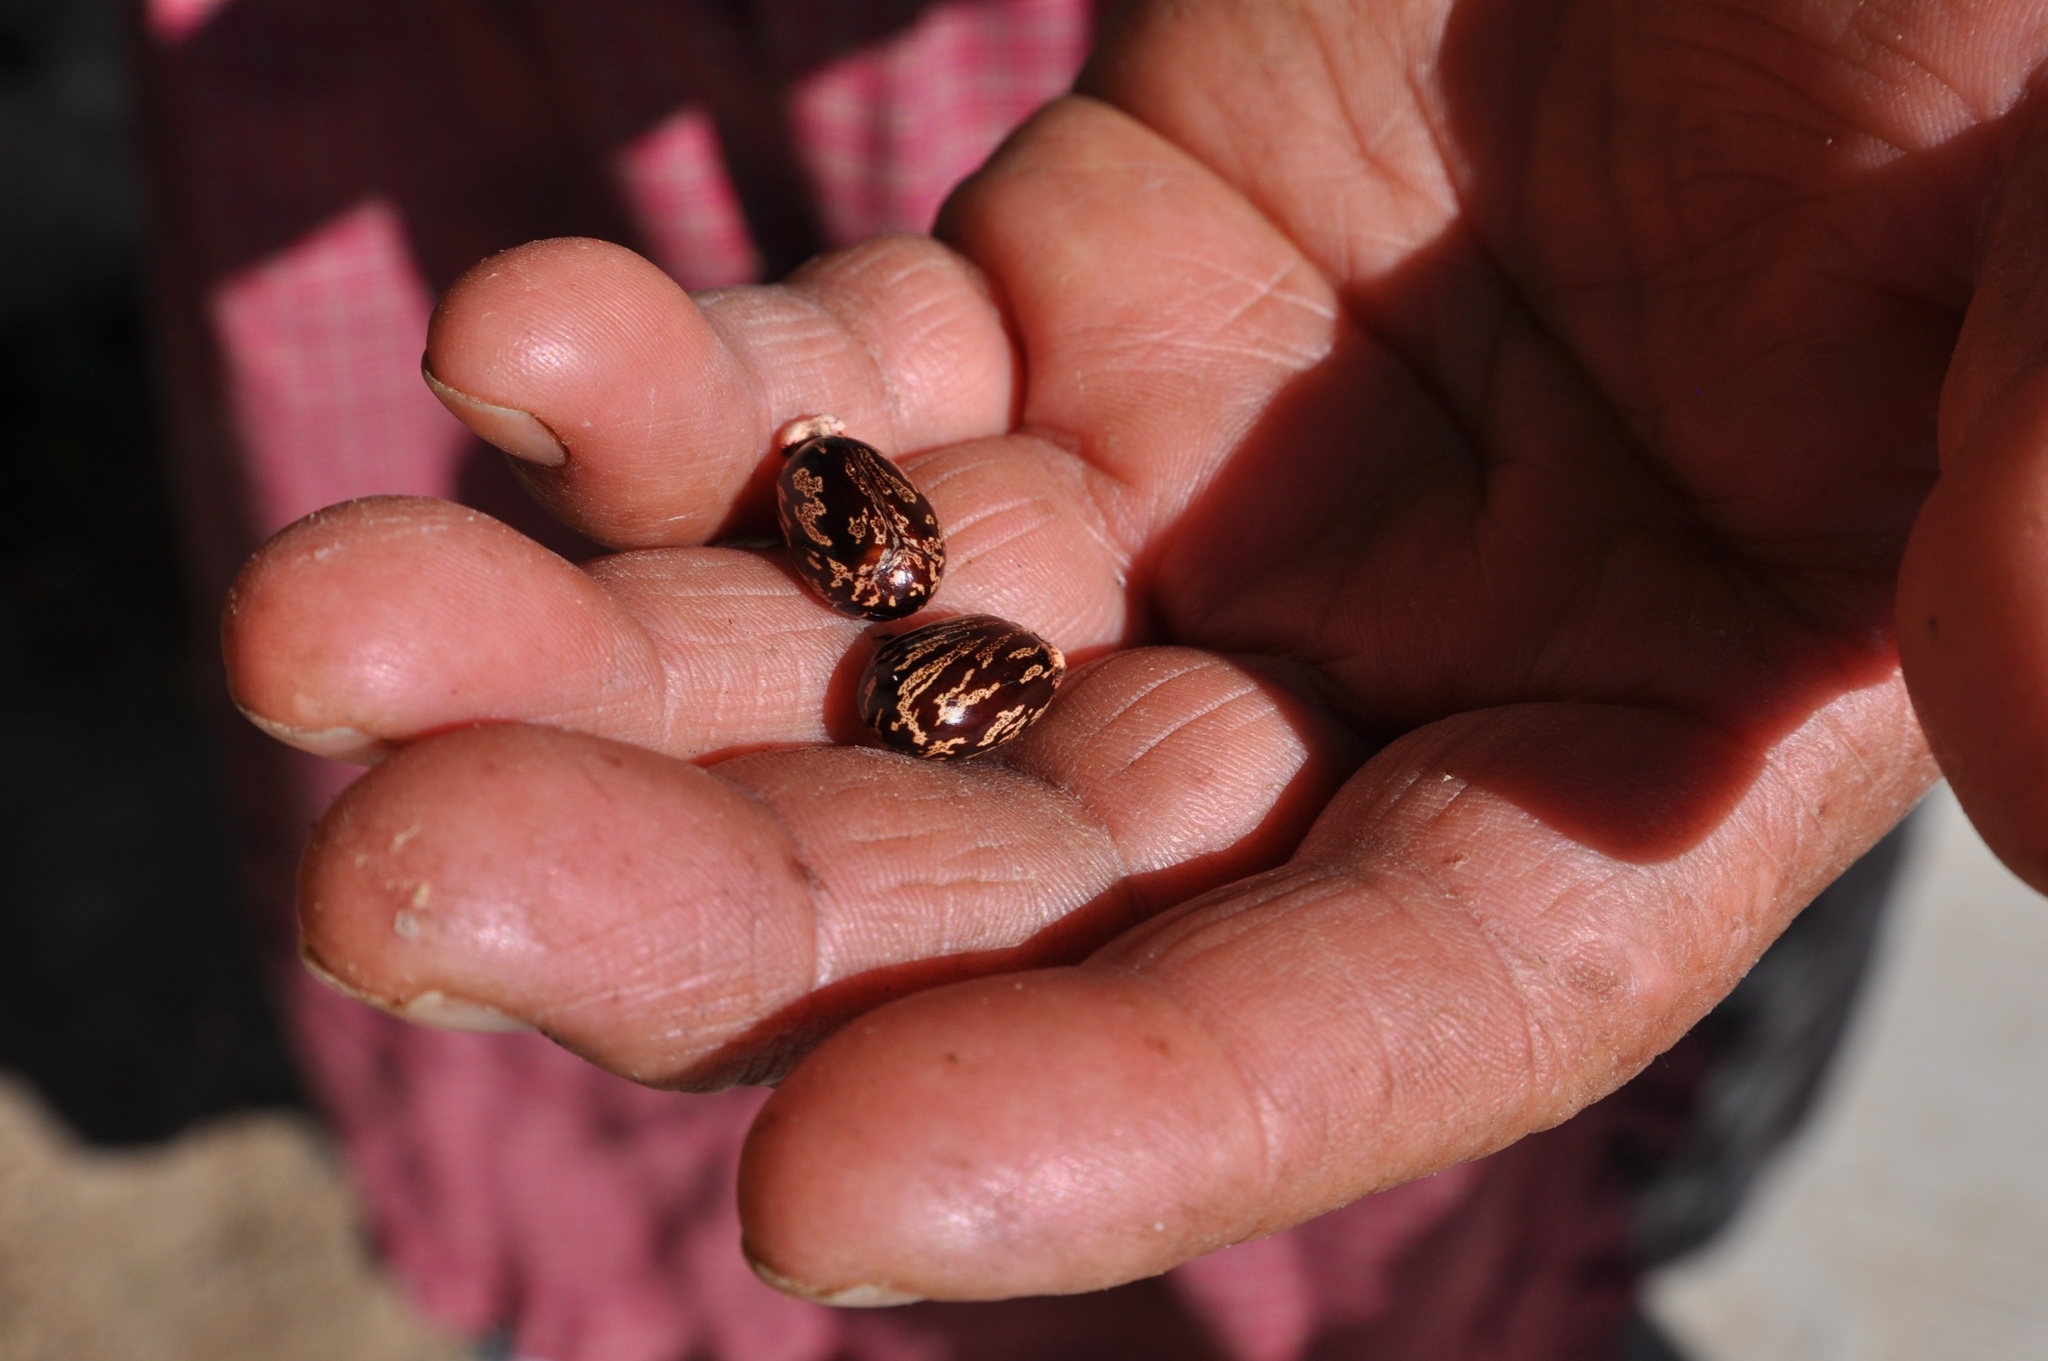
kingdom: Plantae
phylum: Tracheophyta
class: Magnoliopsida
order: Malpighiales
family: Euphorbiaceae
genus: Ricinus
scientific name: Ricinus communis
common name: Castor-oil-plant
